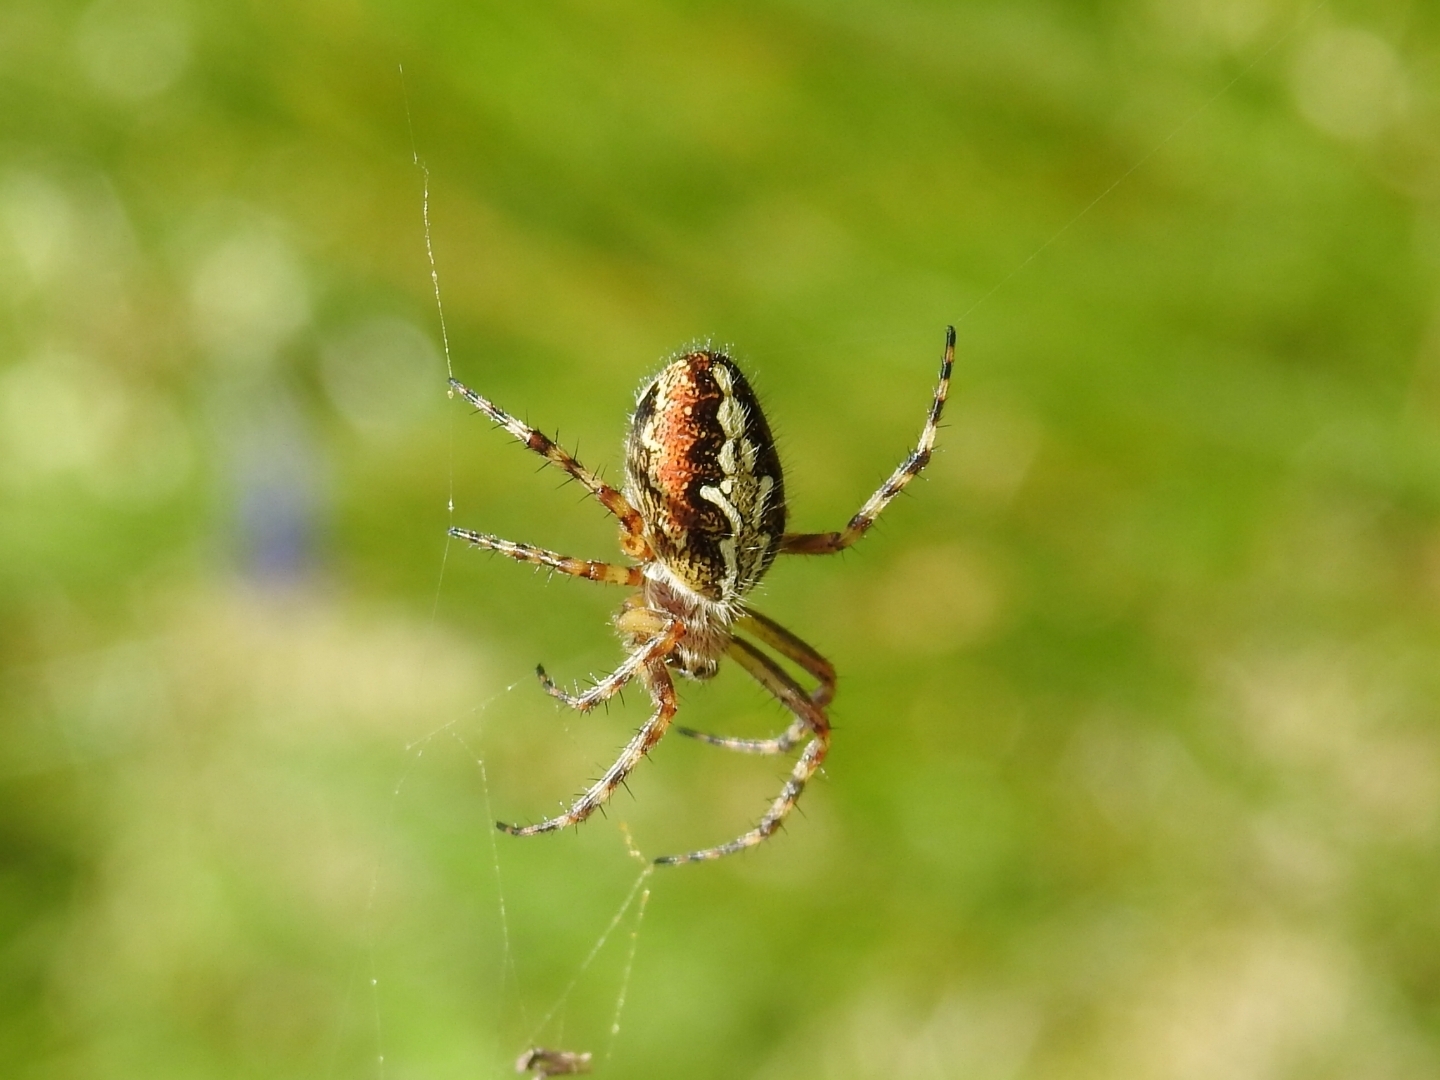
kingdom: Animalia
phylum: Arthropoda
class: Arachnida
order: Araneae
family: Araneidae
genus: Aculepeira
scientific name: Aculepeira ceropegia
